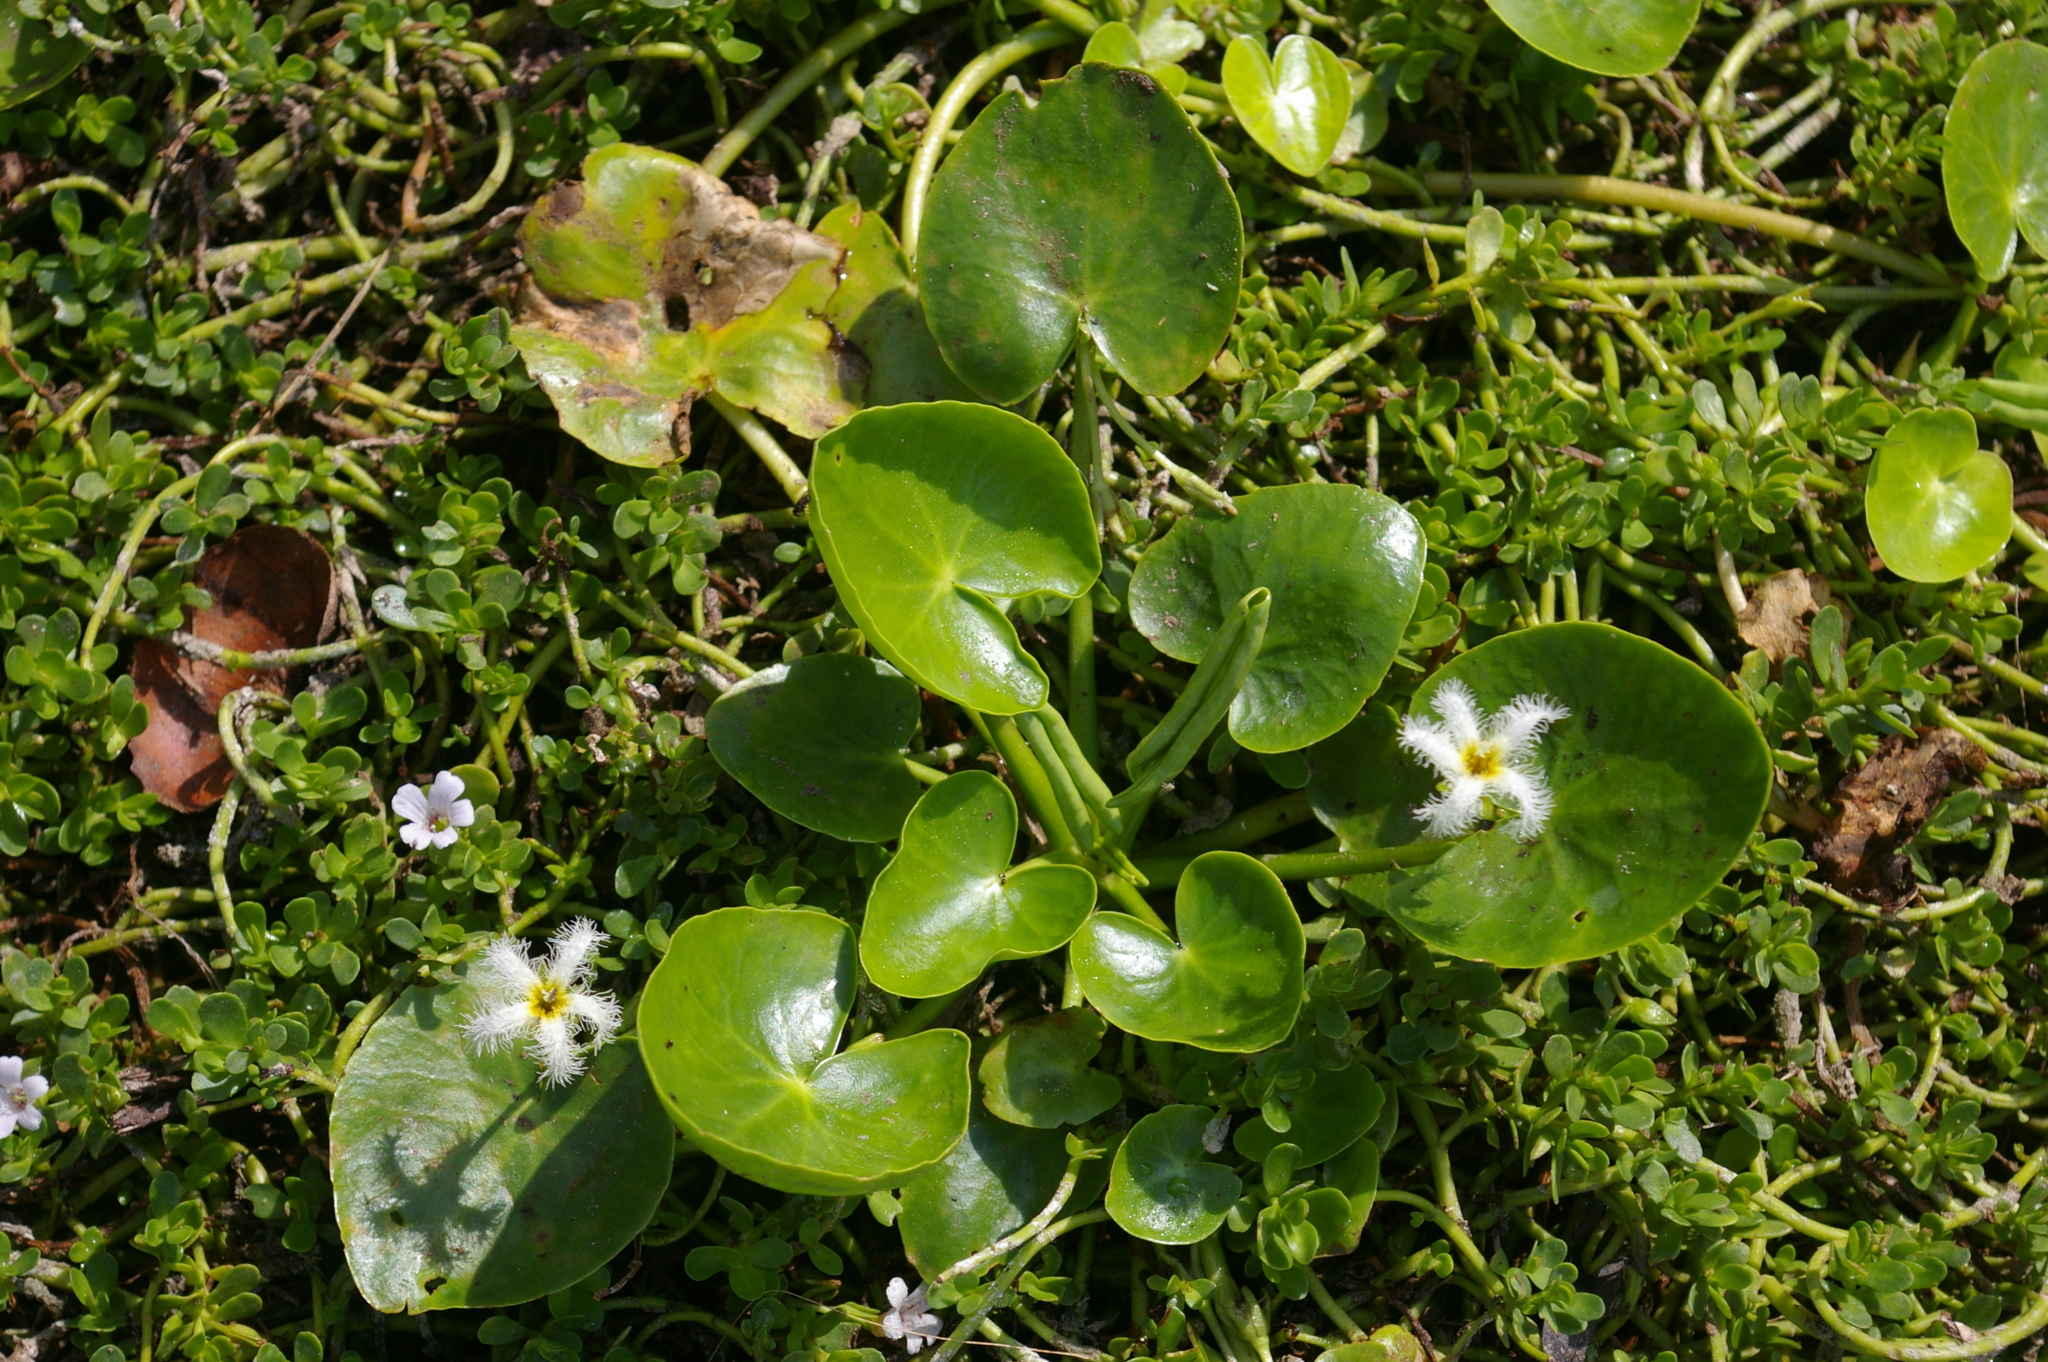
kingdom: Plantae
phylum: Tracheophyta
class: Magnoliopsida
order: Asterales
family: Menyanthaceae
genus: Nymphoides
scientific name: Nymphoides humboldtiana
